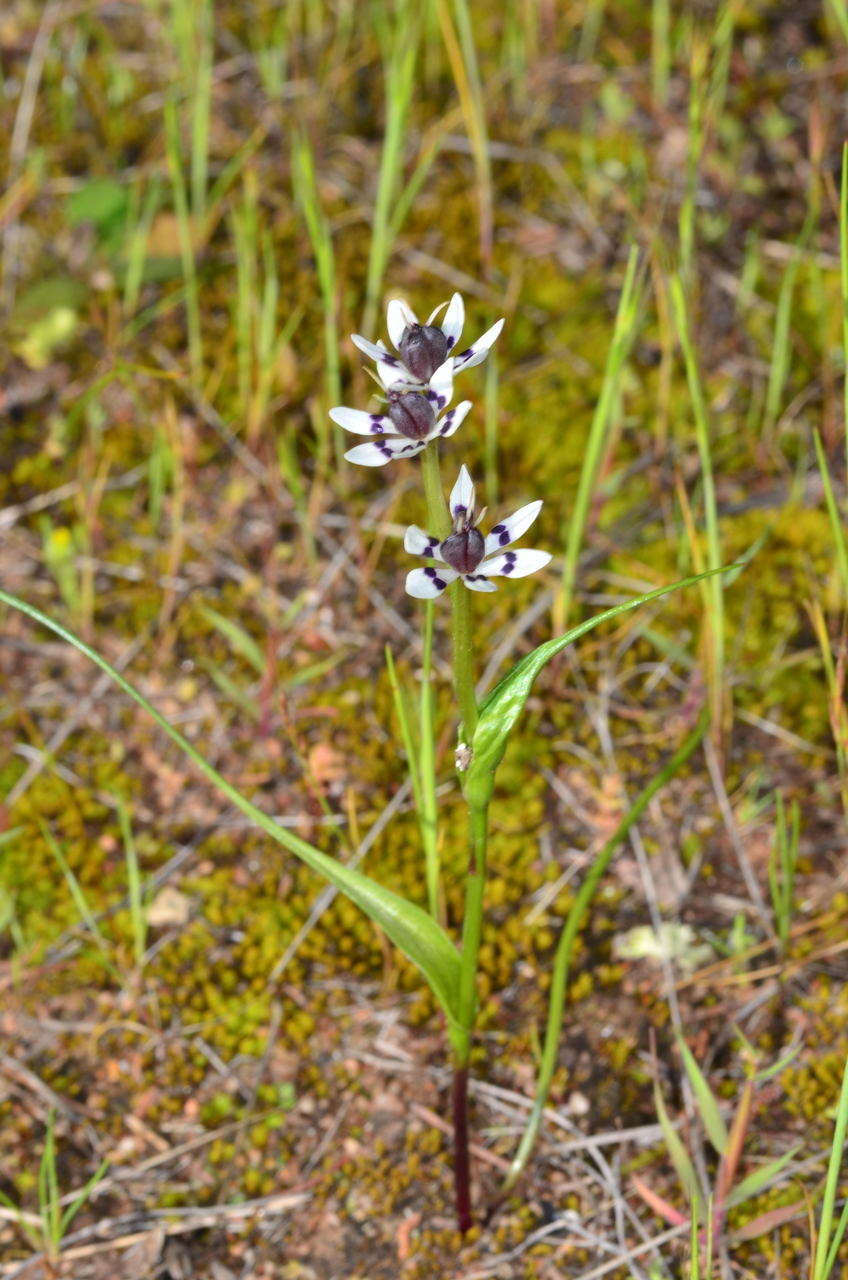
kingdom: Plantae
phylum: Tracheophyta
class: Liliopsida
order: Liliales
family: Colchicaceae
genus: Wurmbea
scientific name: Wurmbea dioica
